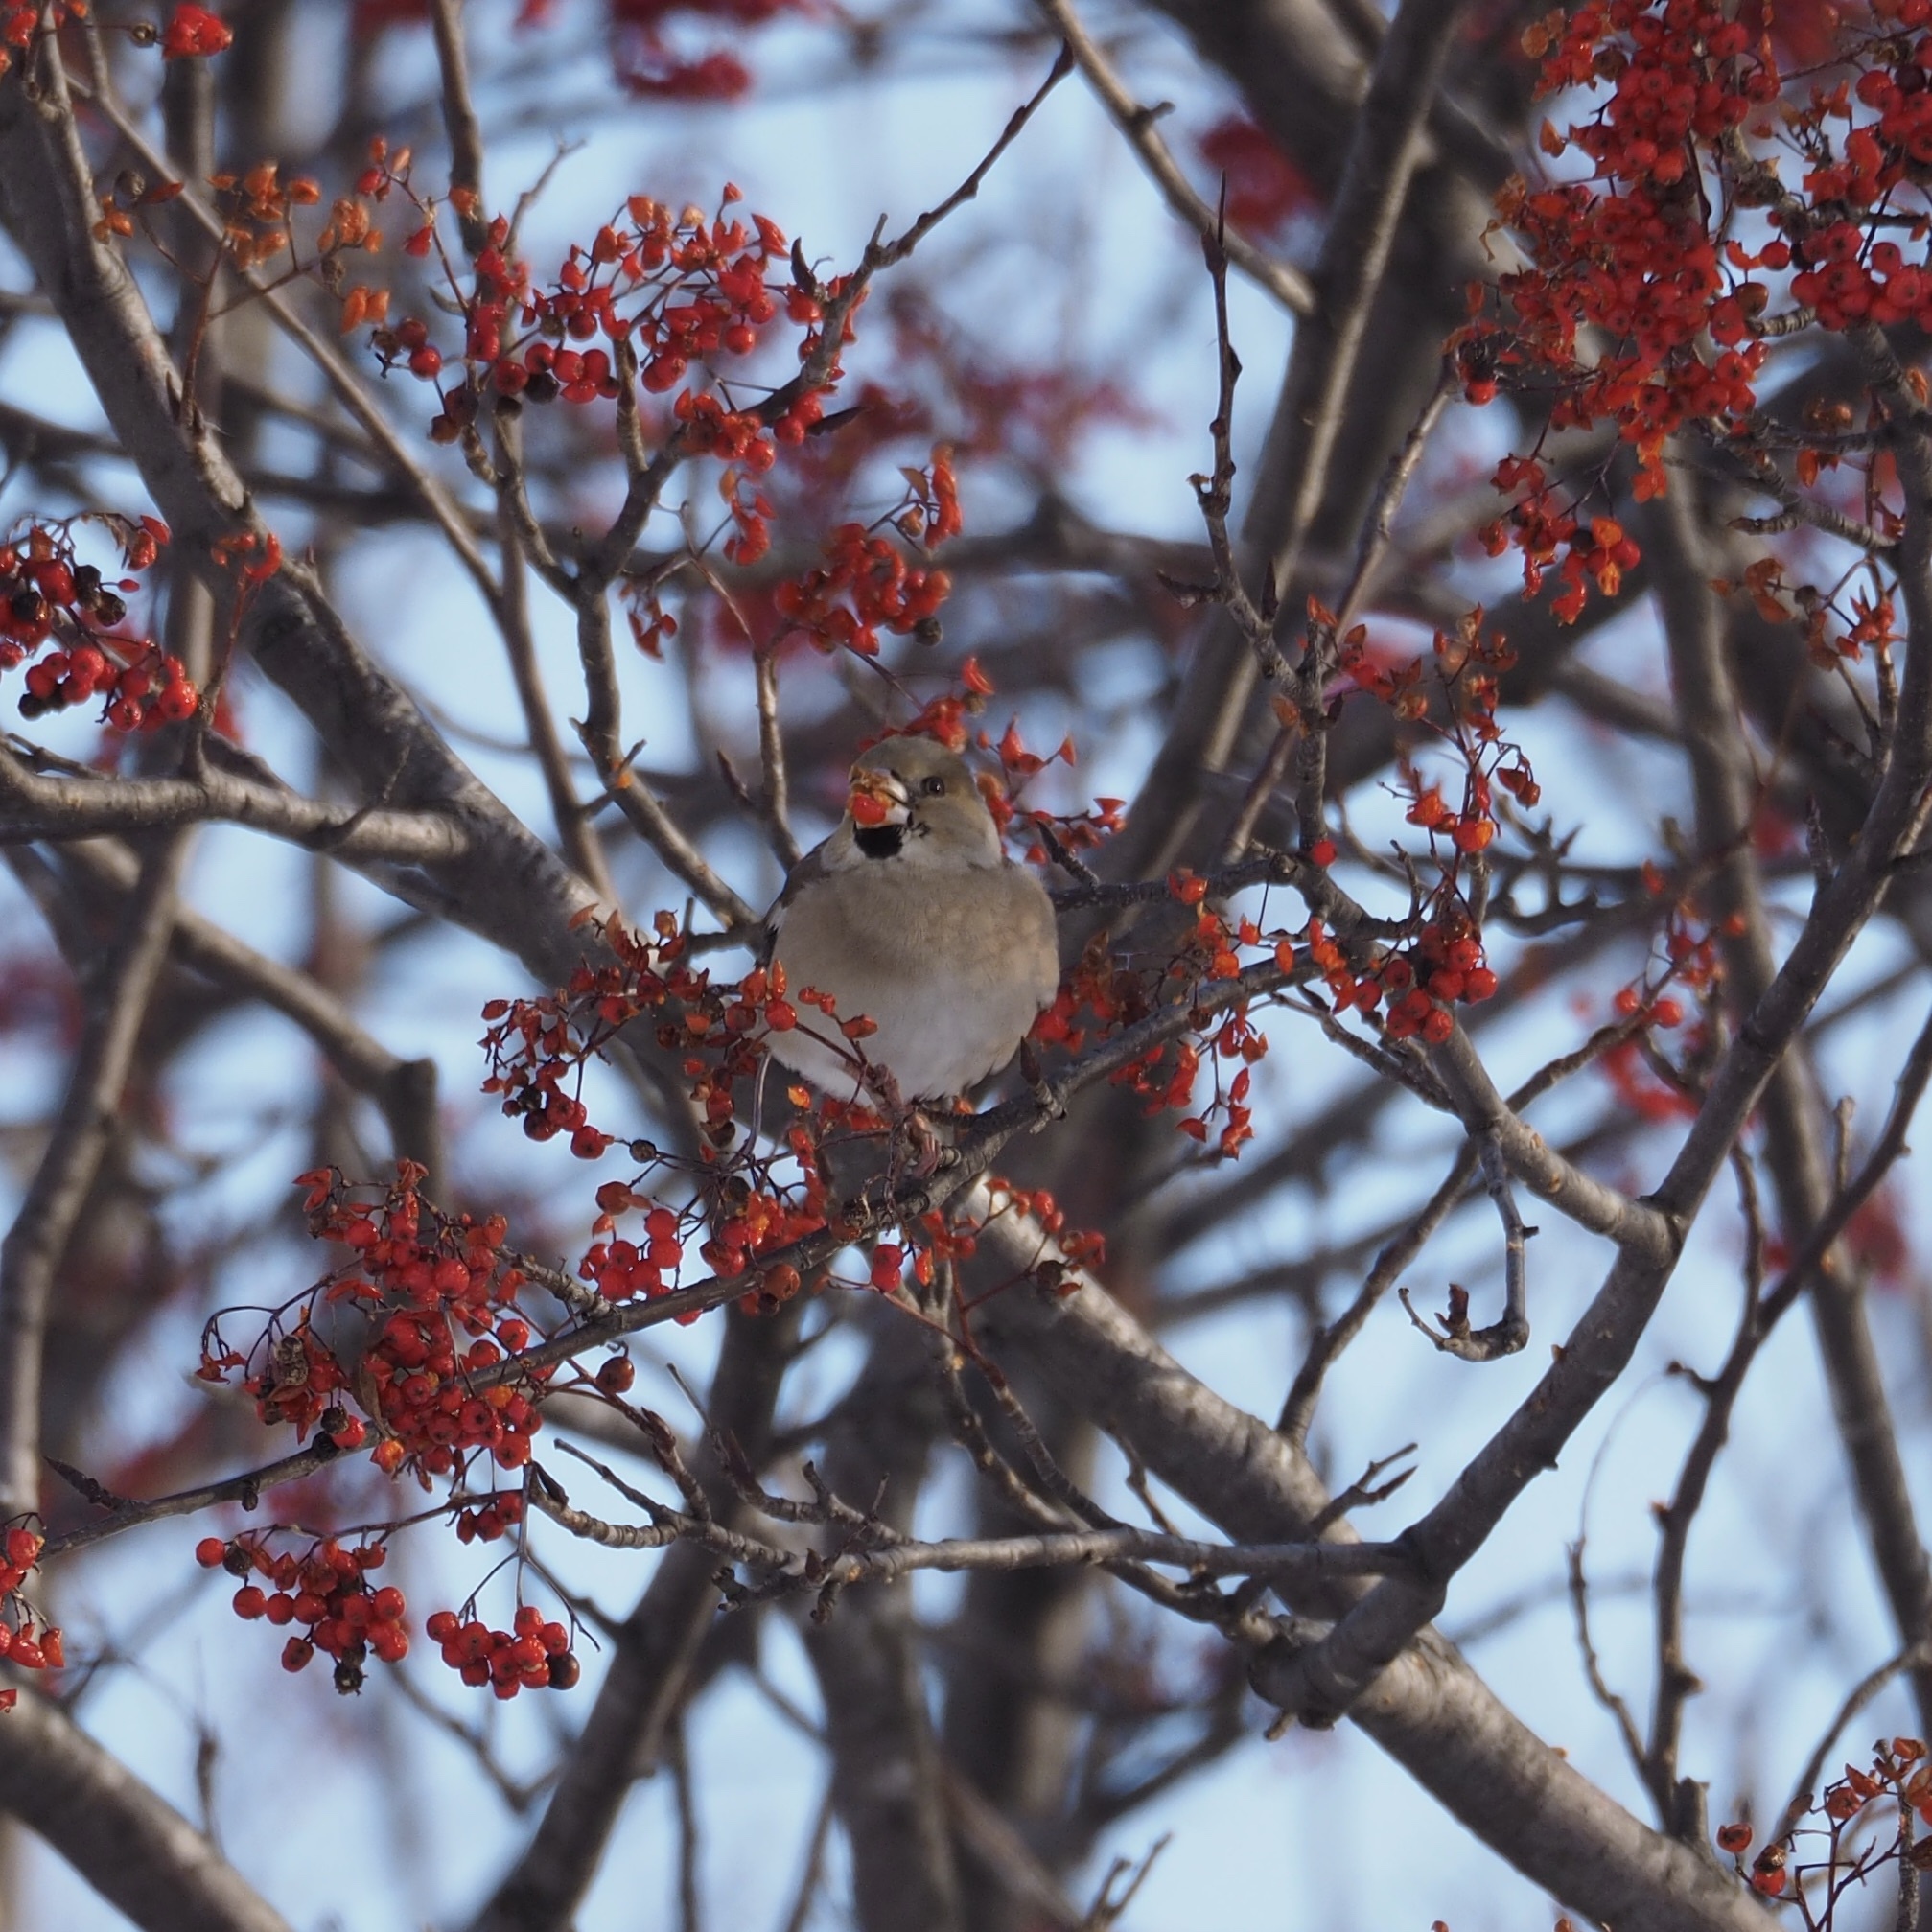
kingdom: Animalia
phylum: Chordata
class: Aves
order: Passeriformes
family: Fringillidae
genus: Coccothraustes
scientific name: Coccothraustes coccothraustes
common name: Hawfinch
